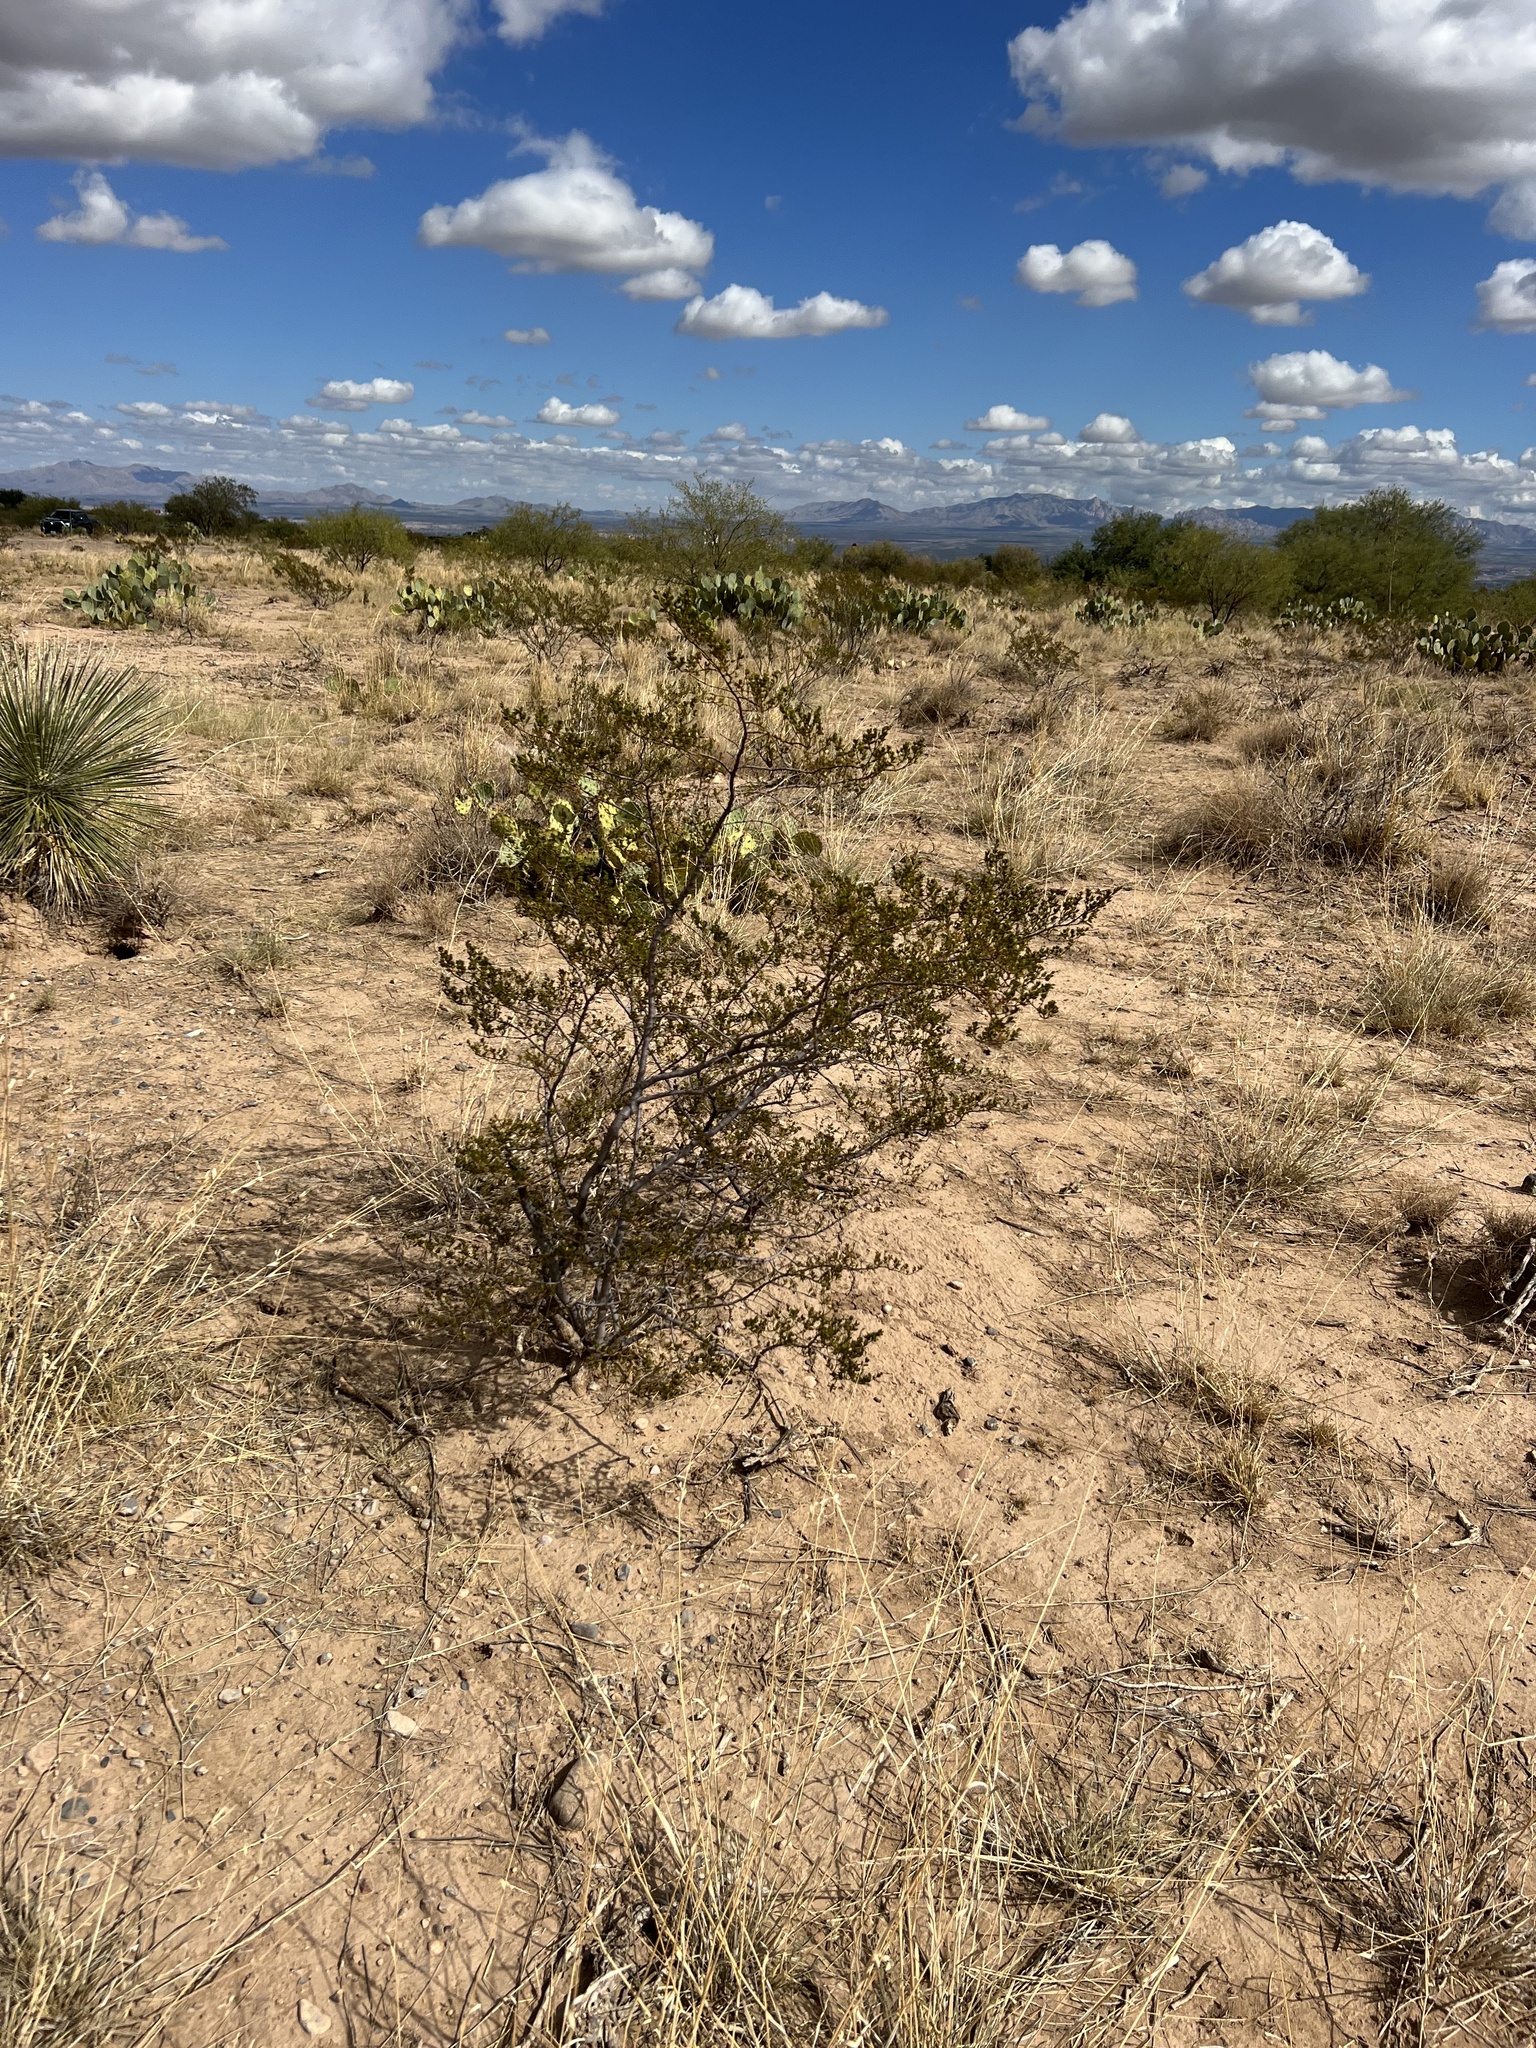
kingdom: Plantae
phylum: Tracheophyta
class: Magnoliopsida
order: Zygophyllales
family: Zygophyllaceae
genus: Larrea
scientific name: Larrea tridentata
